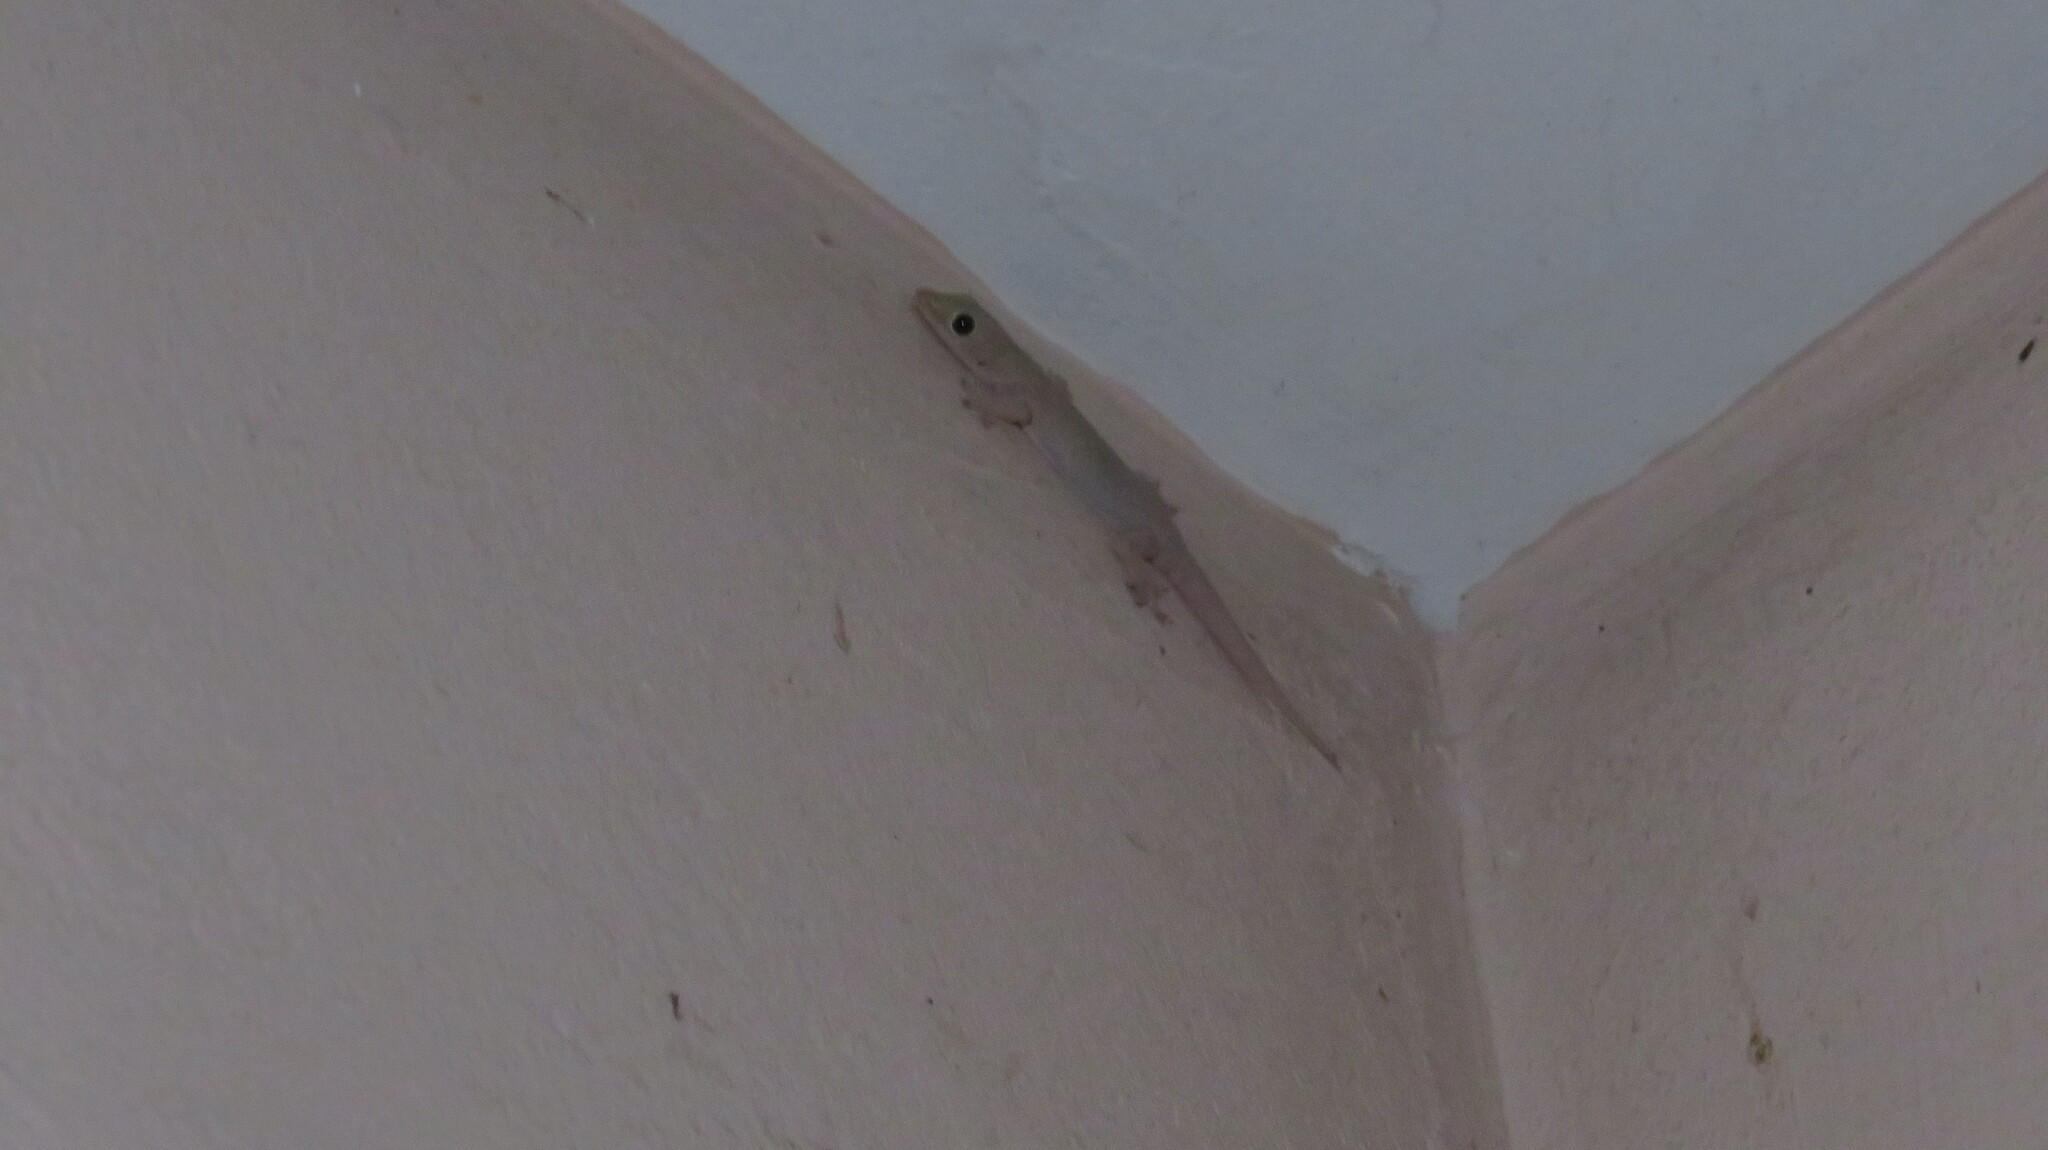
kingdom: Animalia
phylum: Chordata
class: Squamata
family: Gekkonidae
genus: Hemidactylus
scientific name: Hemidactylus platyurus
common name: Flat-tailed house gecko
